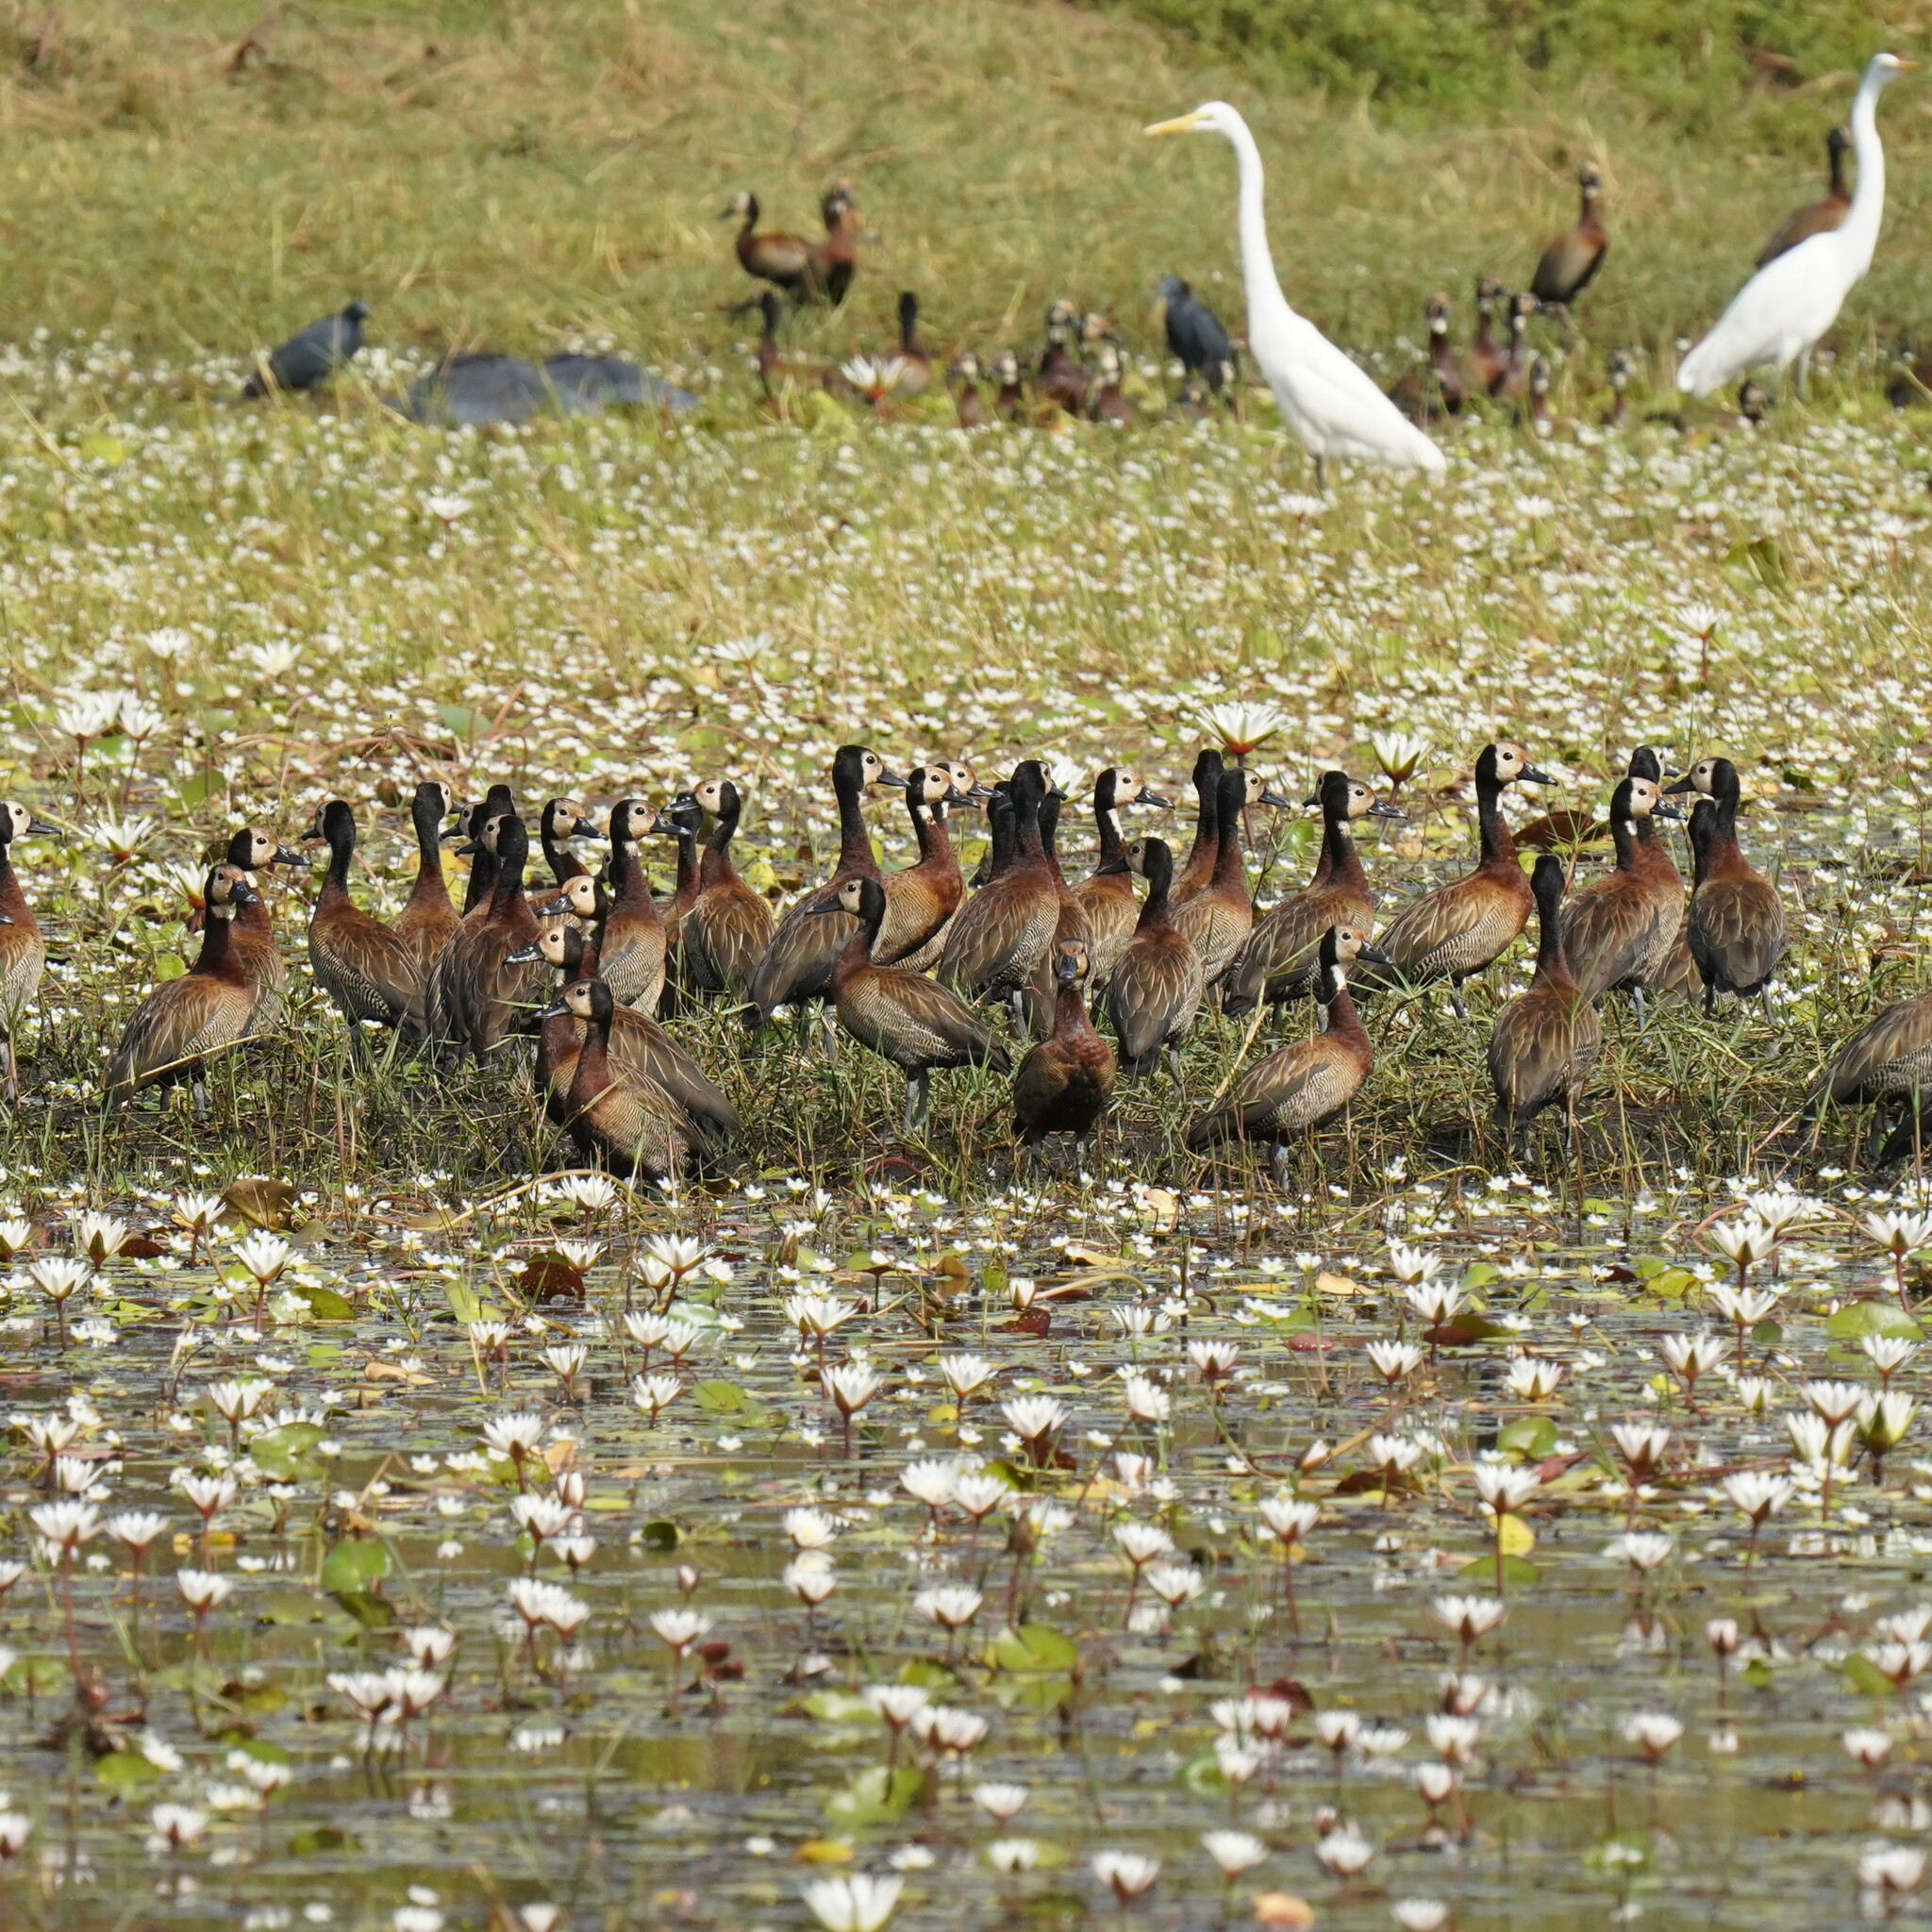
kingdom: Animalia
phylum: Chordata
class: Aves
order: Anseriformes
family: Anatidae
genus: Dendrocygna
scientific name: Dendrocygna viduata
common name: White-faced whistling duck
